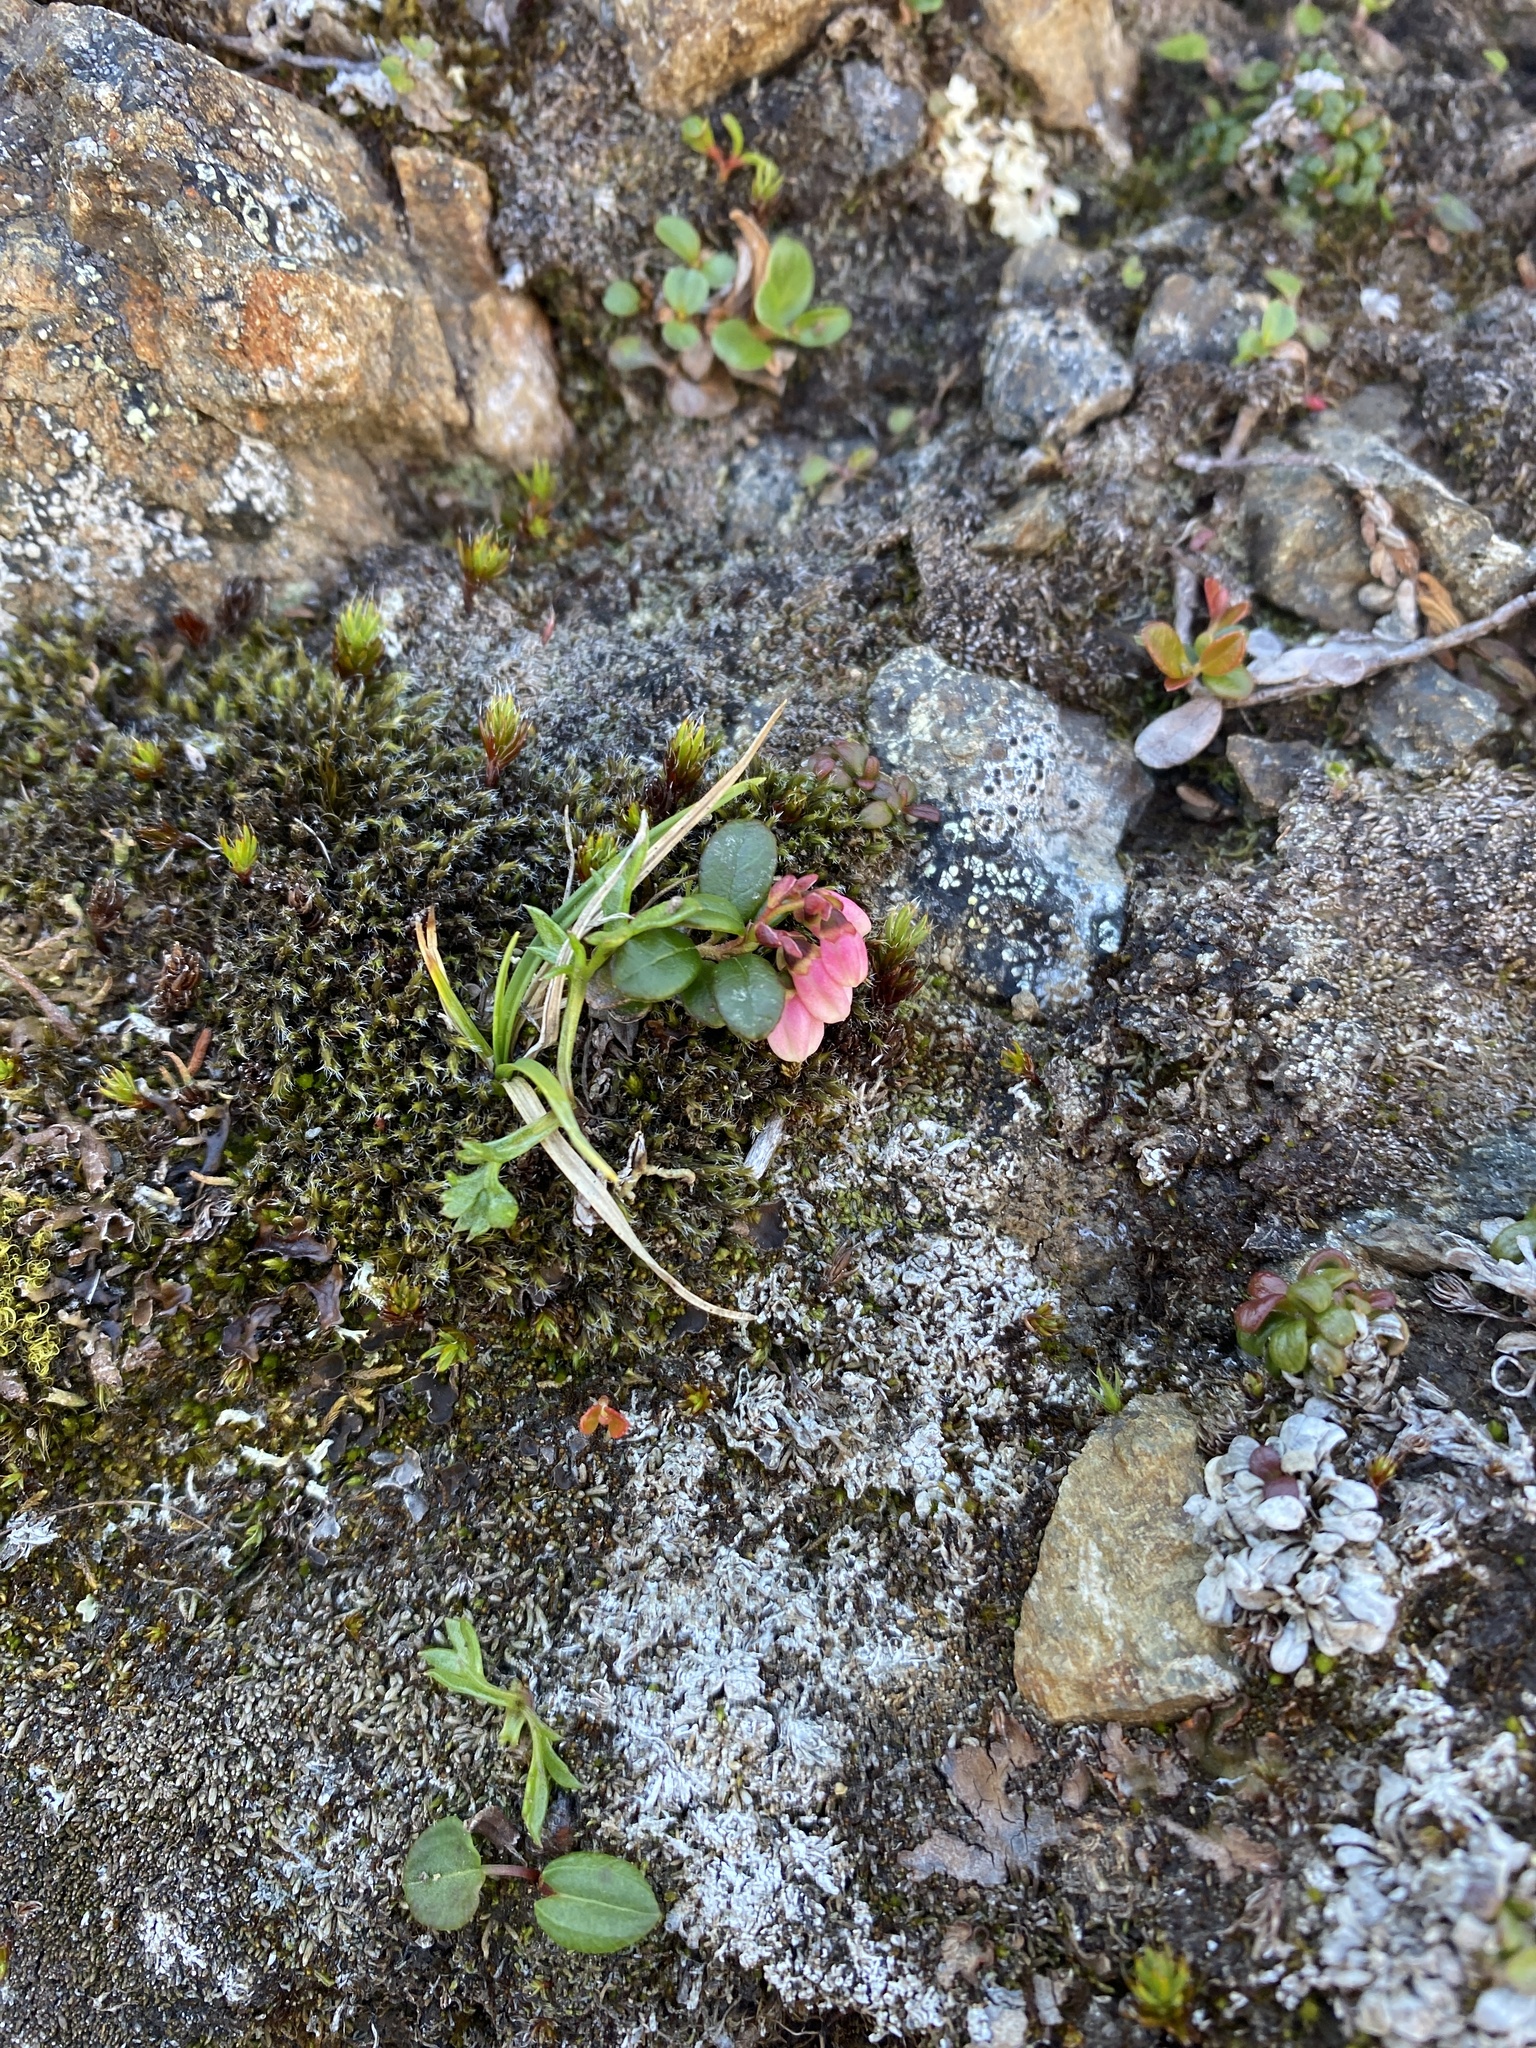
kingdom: Plantae
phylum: Tracheophyta
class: Magnoliopsida
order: Ericales
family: Ericaceae
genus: Vaccinium
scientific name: Vaccinium vitis-idaea
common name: Cowberry
